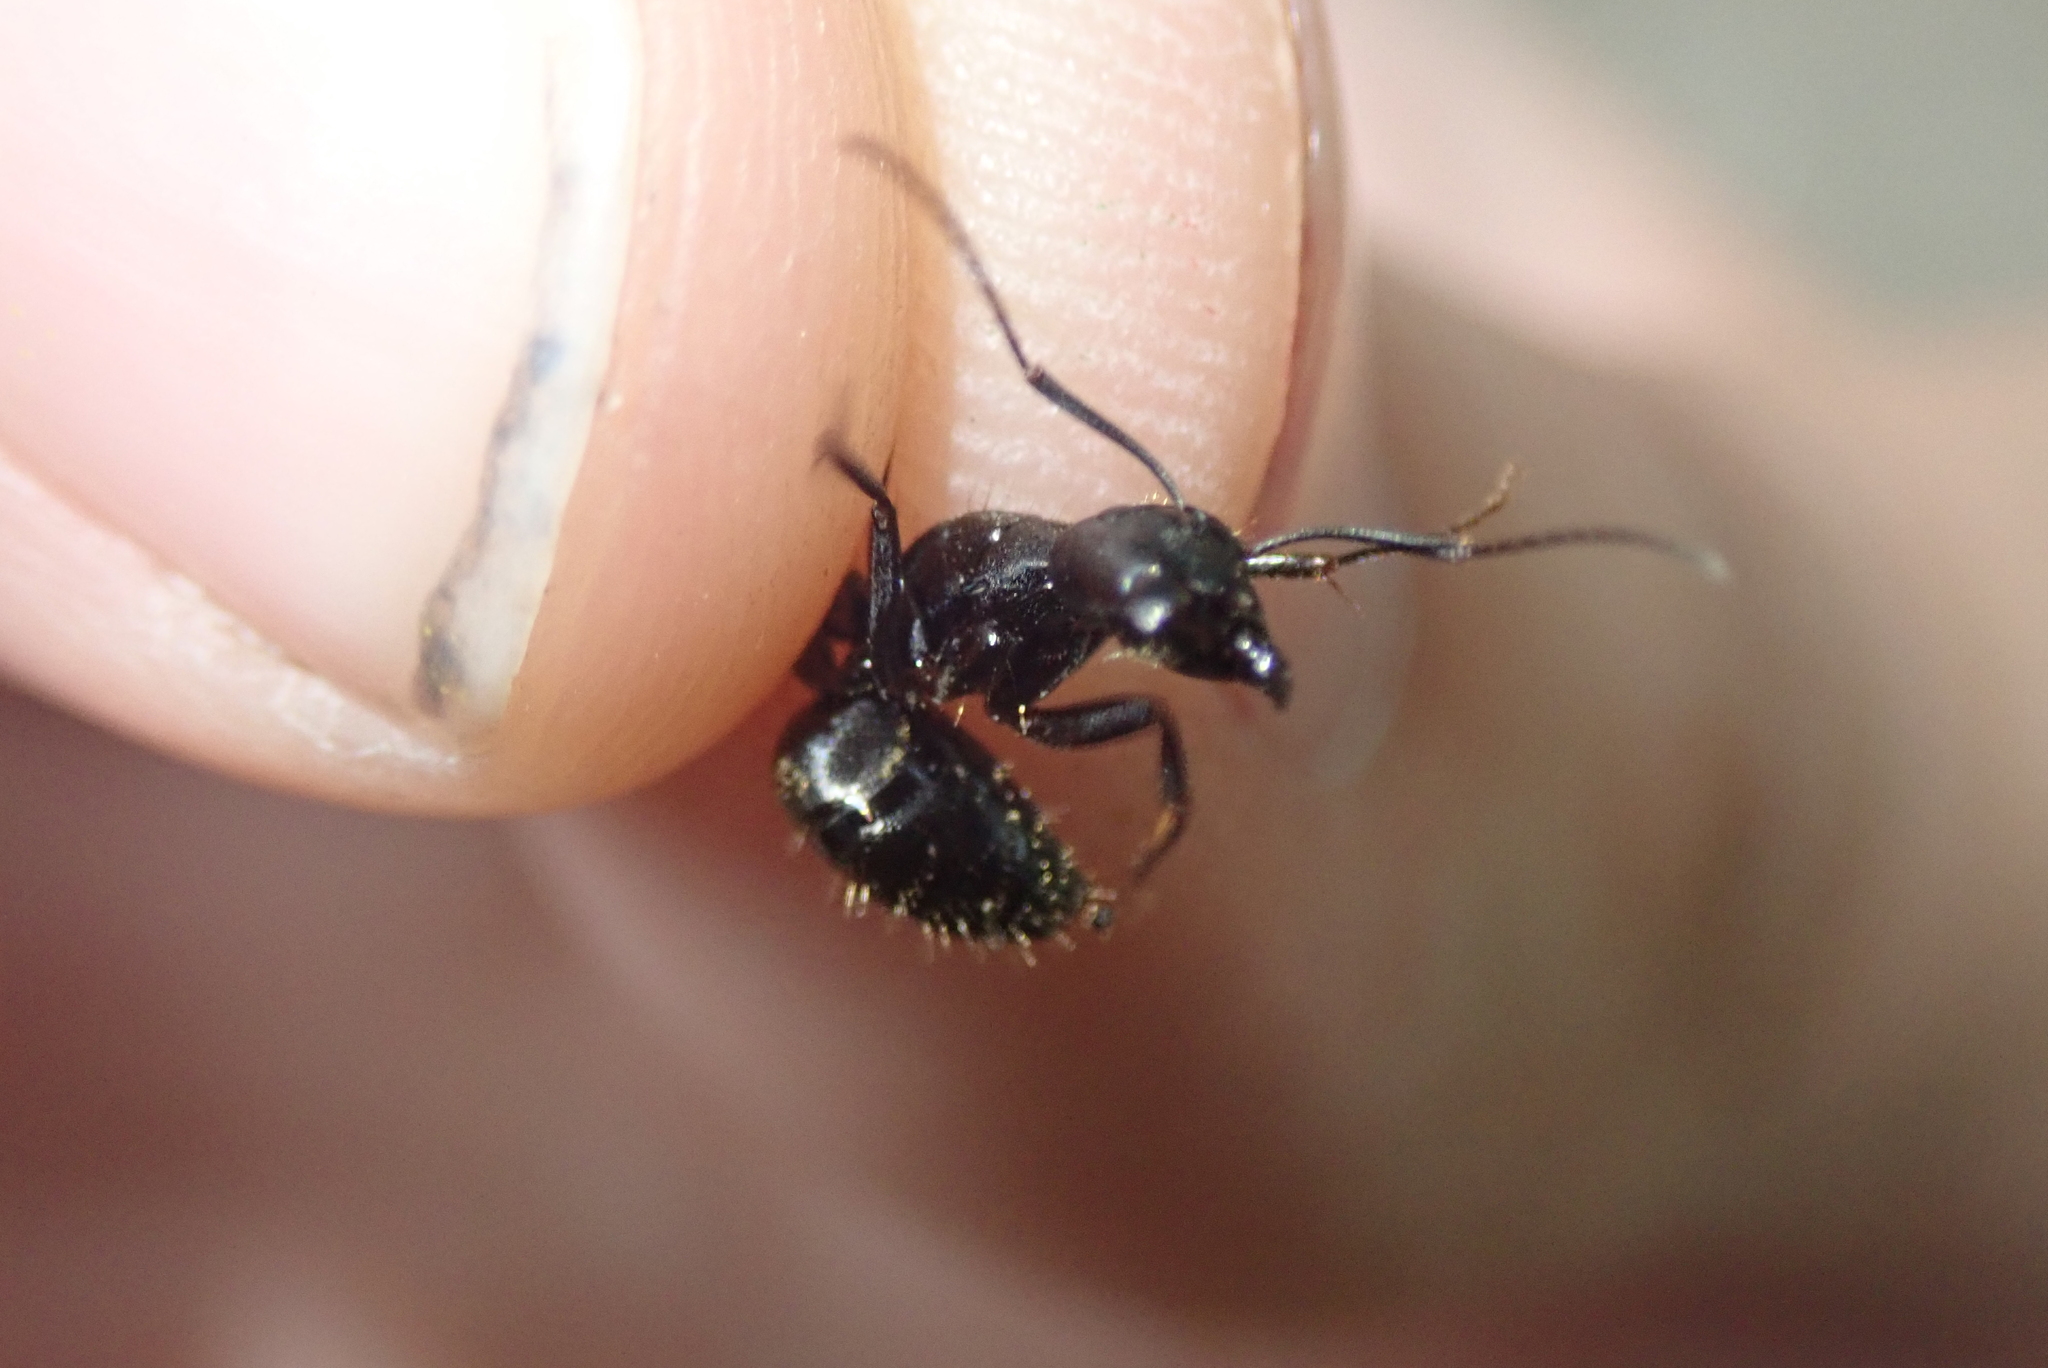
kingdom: Animalia
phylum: Arthropoda
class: Insecta
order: Hymenoptera
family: Formicidae
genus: Camponotus
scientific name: Camponotus pennsylvanicus
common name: Black carpenter ant
